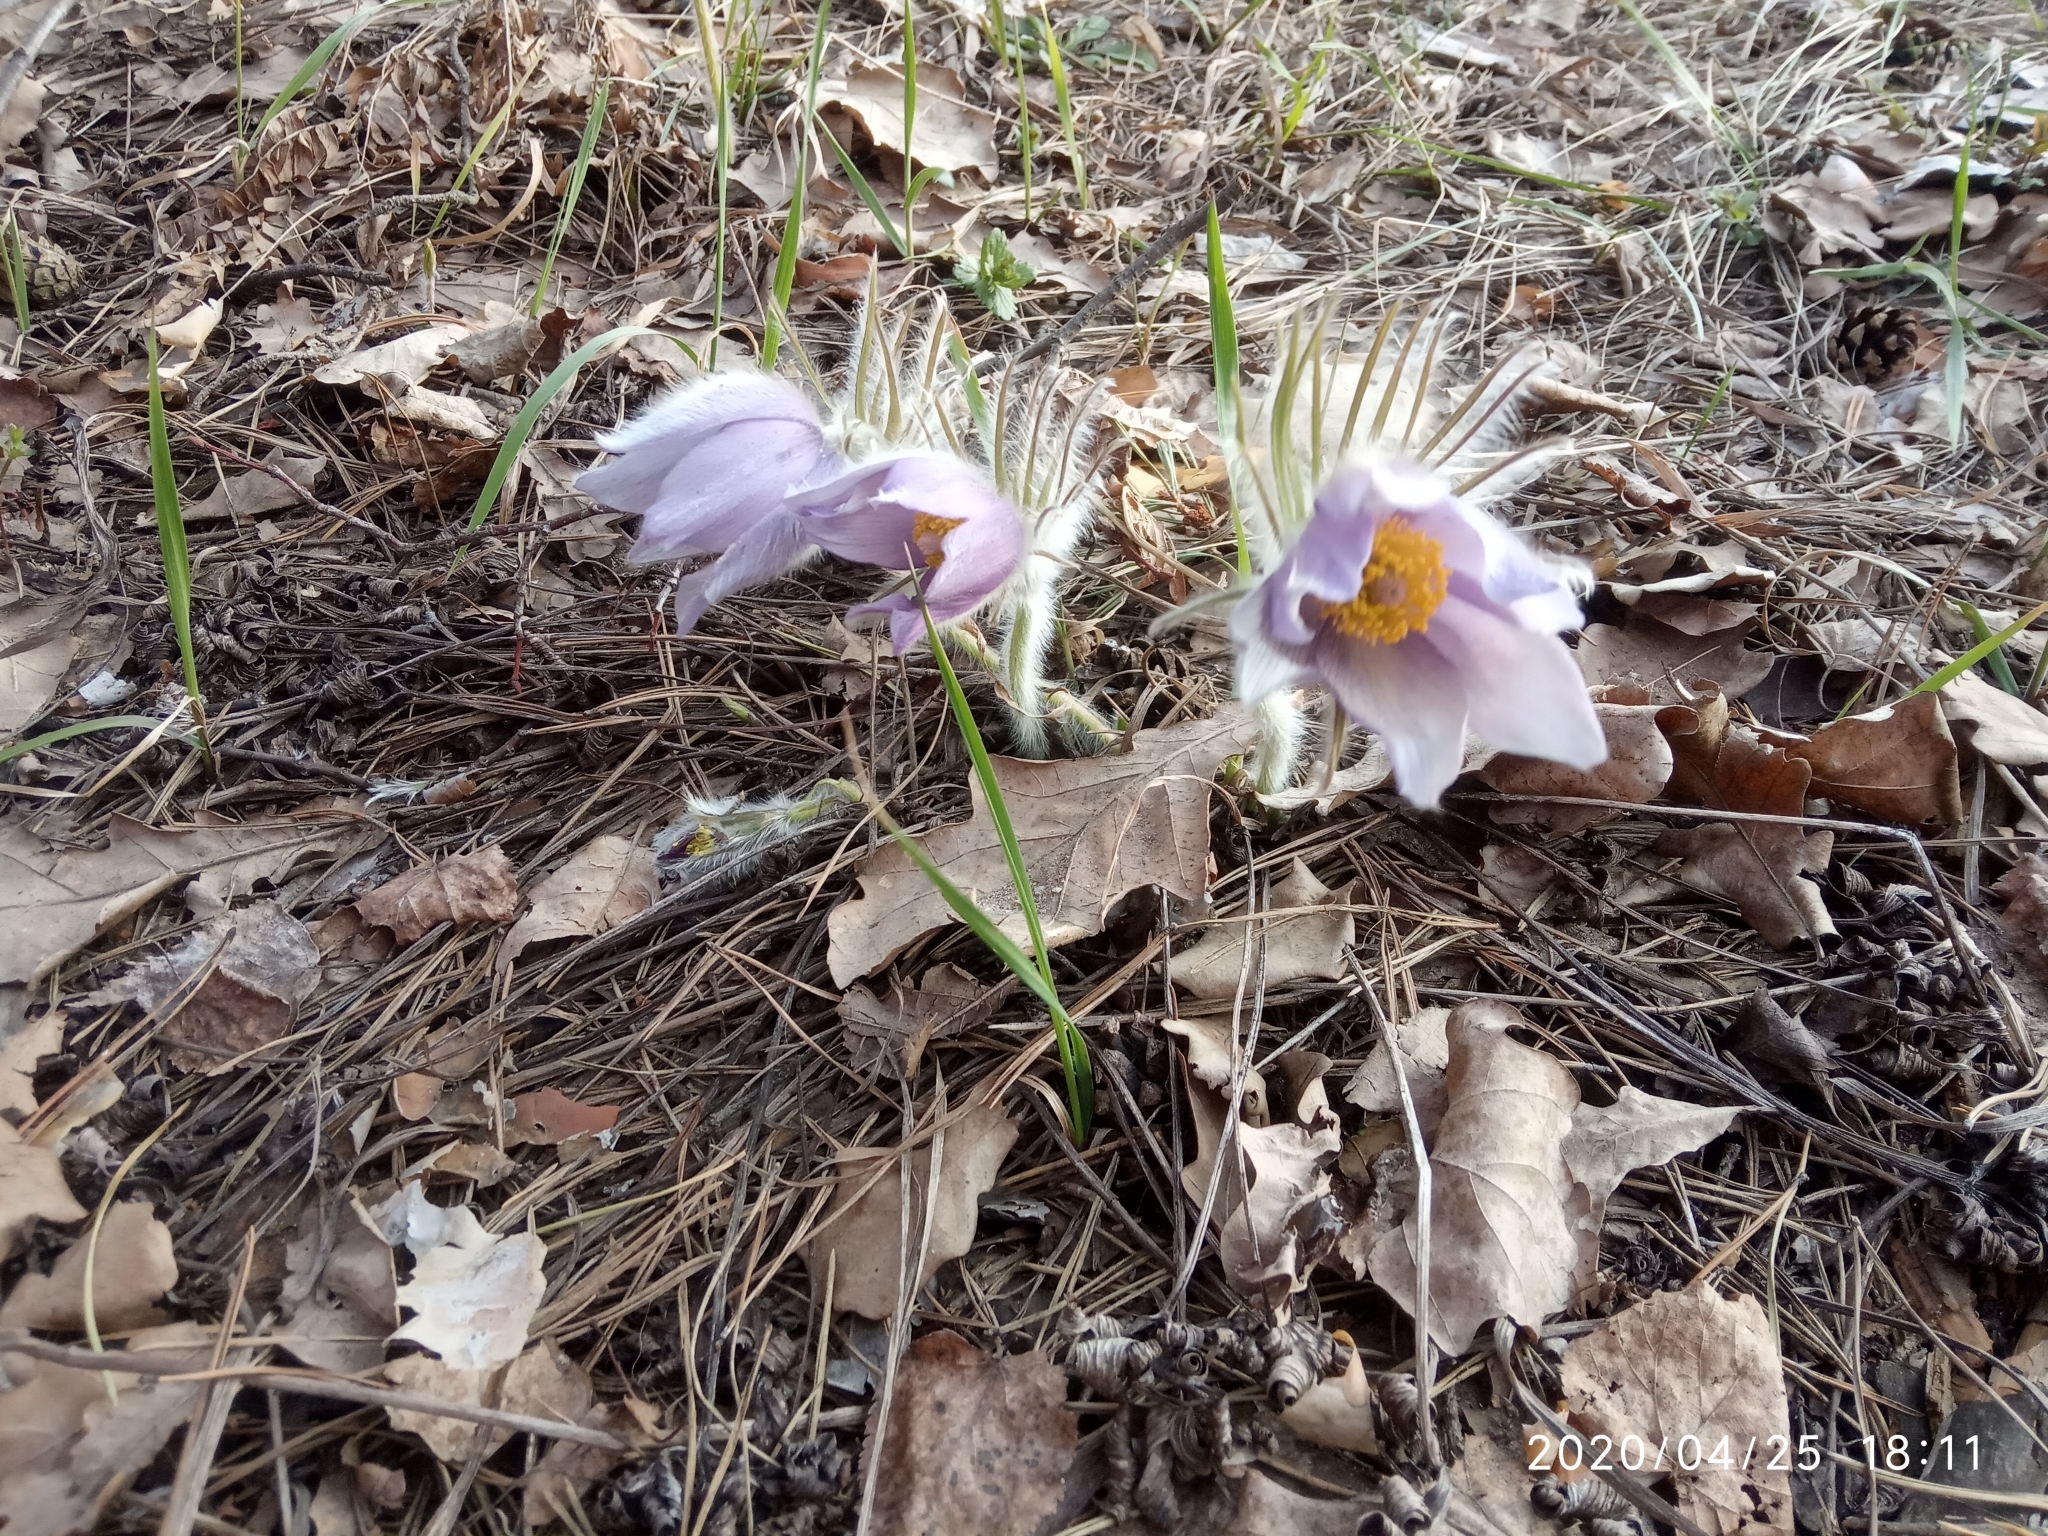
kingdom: Plantae
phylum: Tracheophyta
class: Magnoliopsida
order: Ranunculales
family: Ranunculaceae
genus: Pulsatilla
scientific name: Pulsatilla patens
